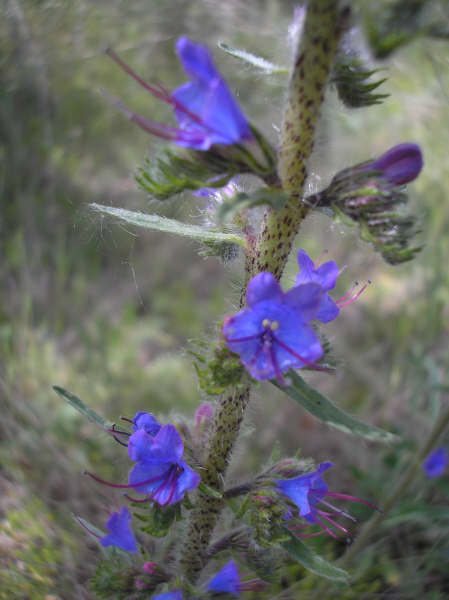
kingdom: Plantae
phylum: Tracheophyta
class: Magnoliopsida
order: Boraginales
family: Boraginaceae
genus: Echium
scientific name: Echium vulgare
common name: Common viper's bugloss
